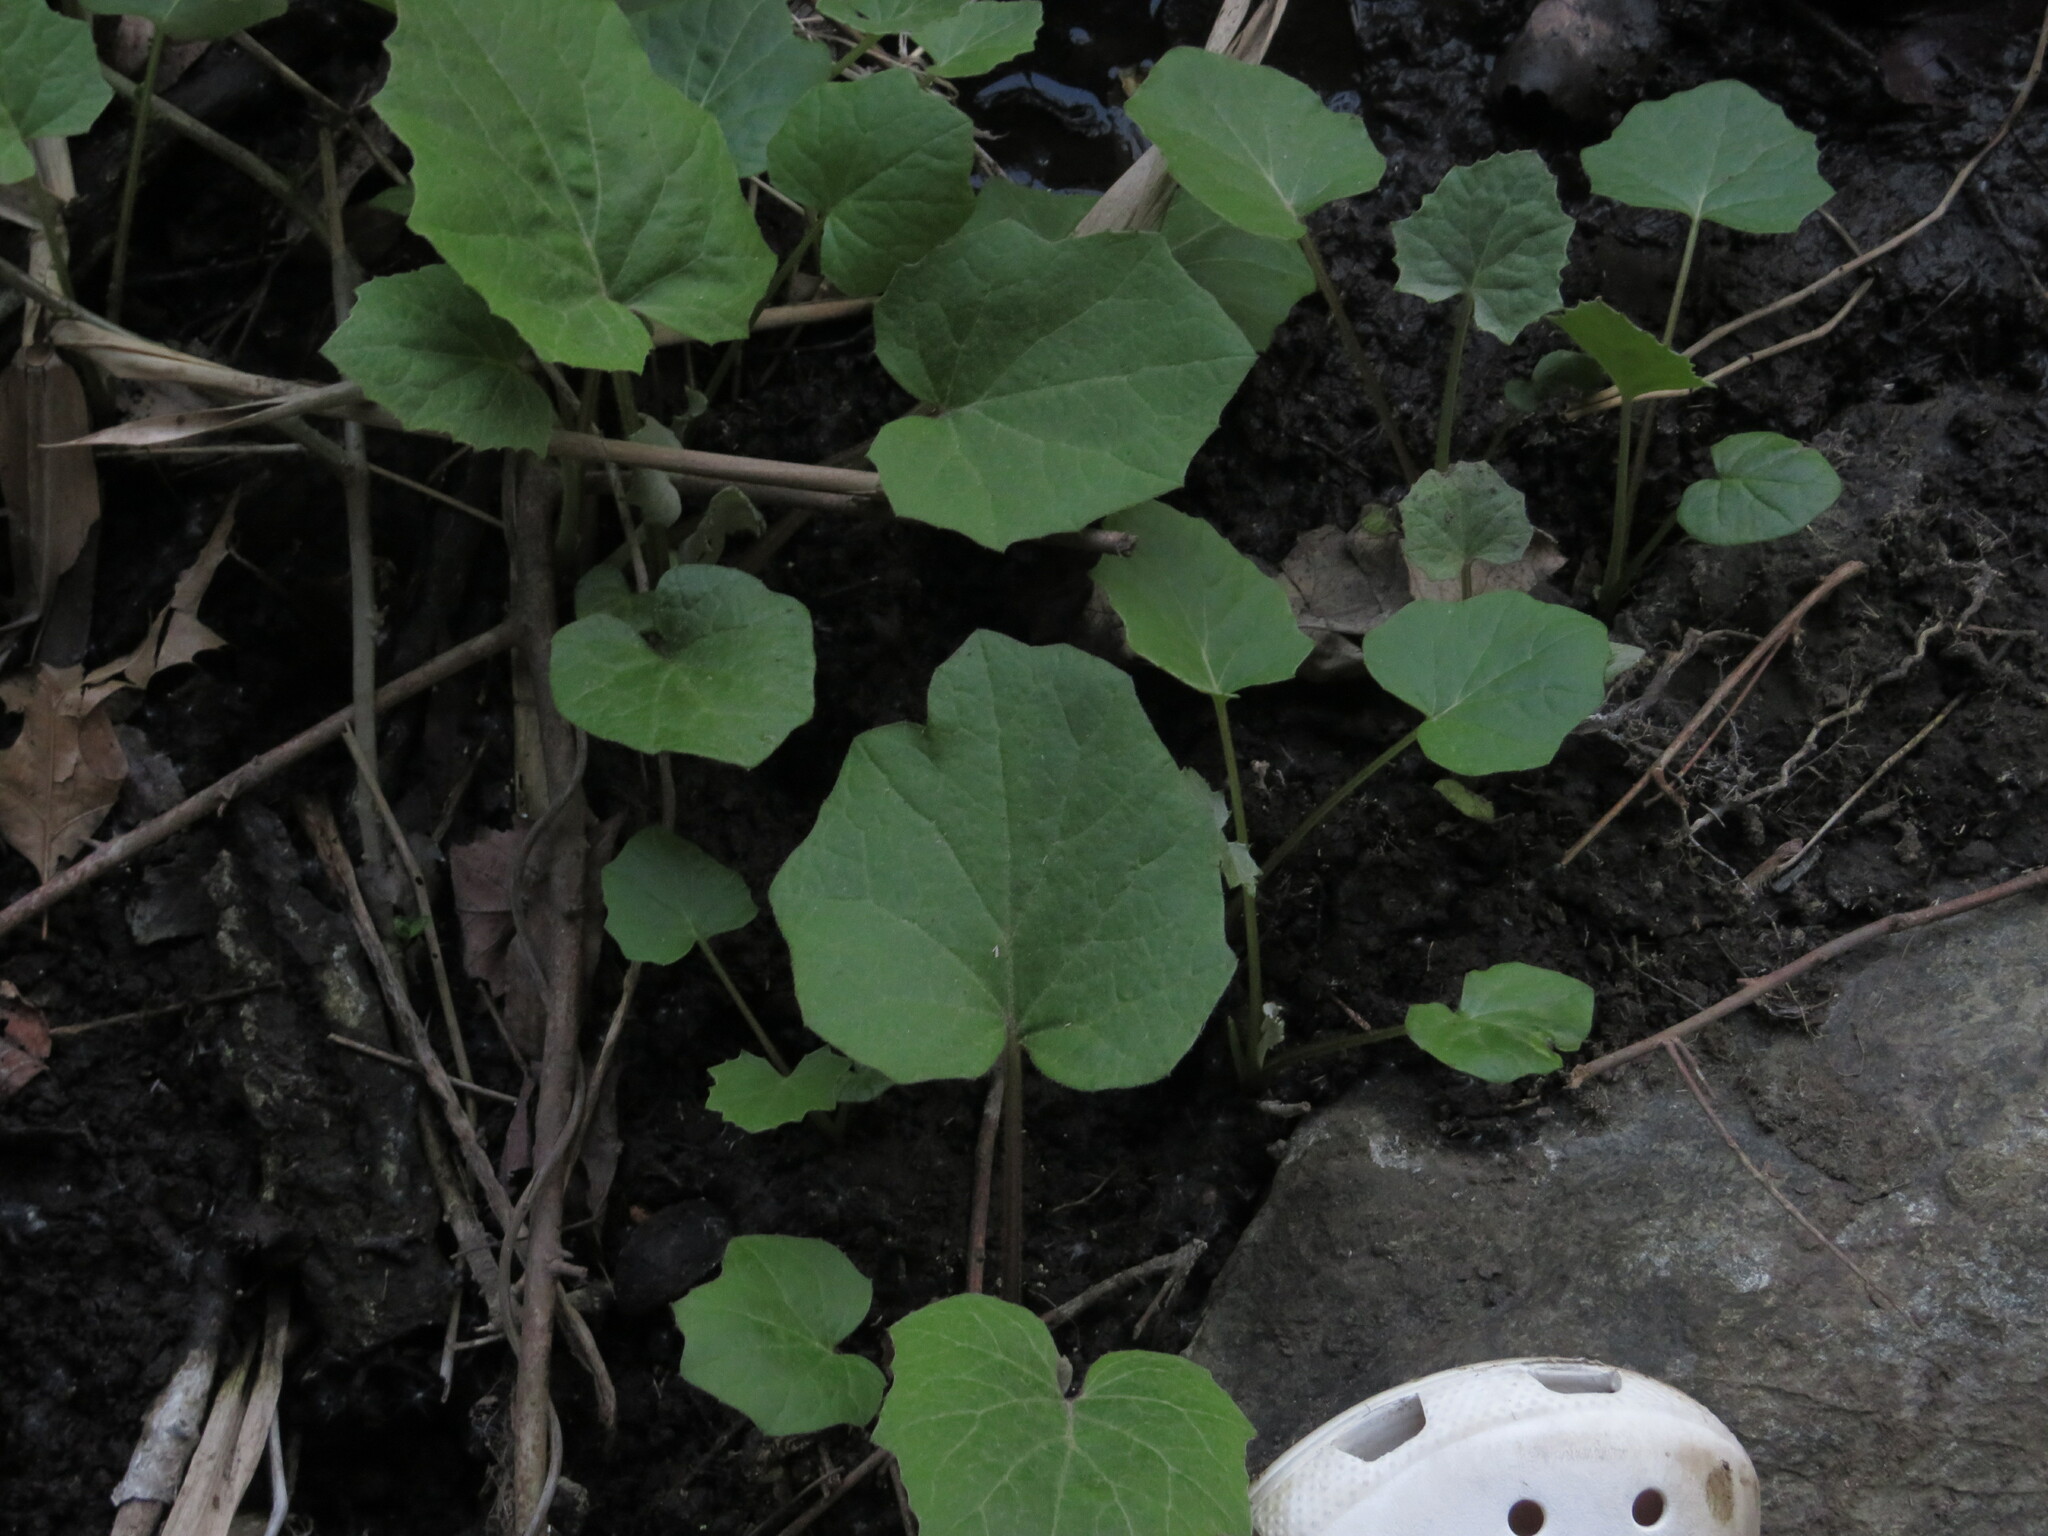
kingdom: Plantae
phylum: Tracheophyta
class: Magnoliopsida
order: Asterales
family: Asteraceae
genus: Tussilago
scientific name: Tussilago farfara
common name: Coltsfoot
